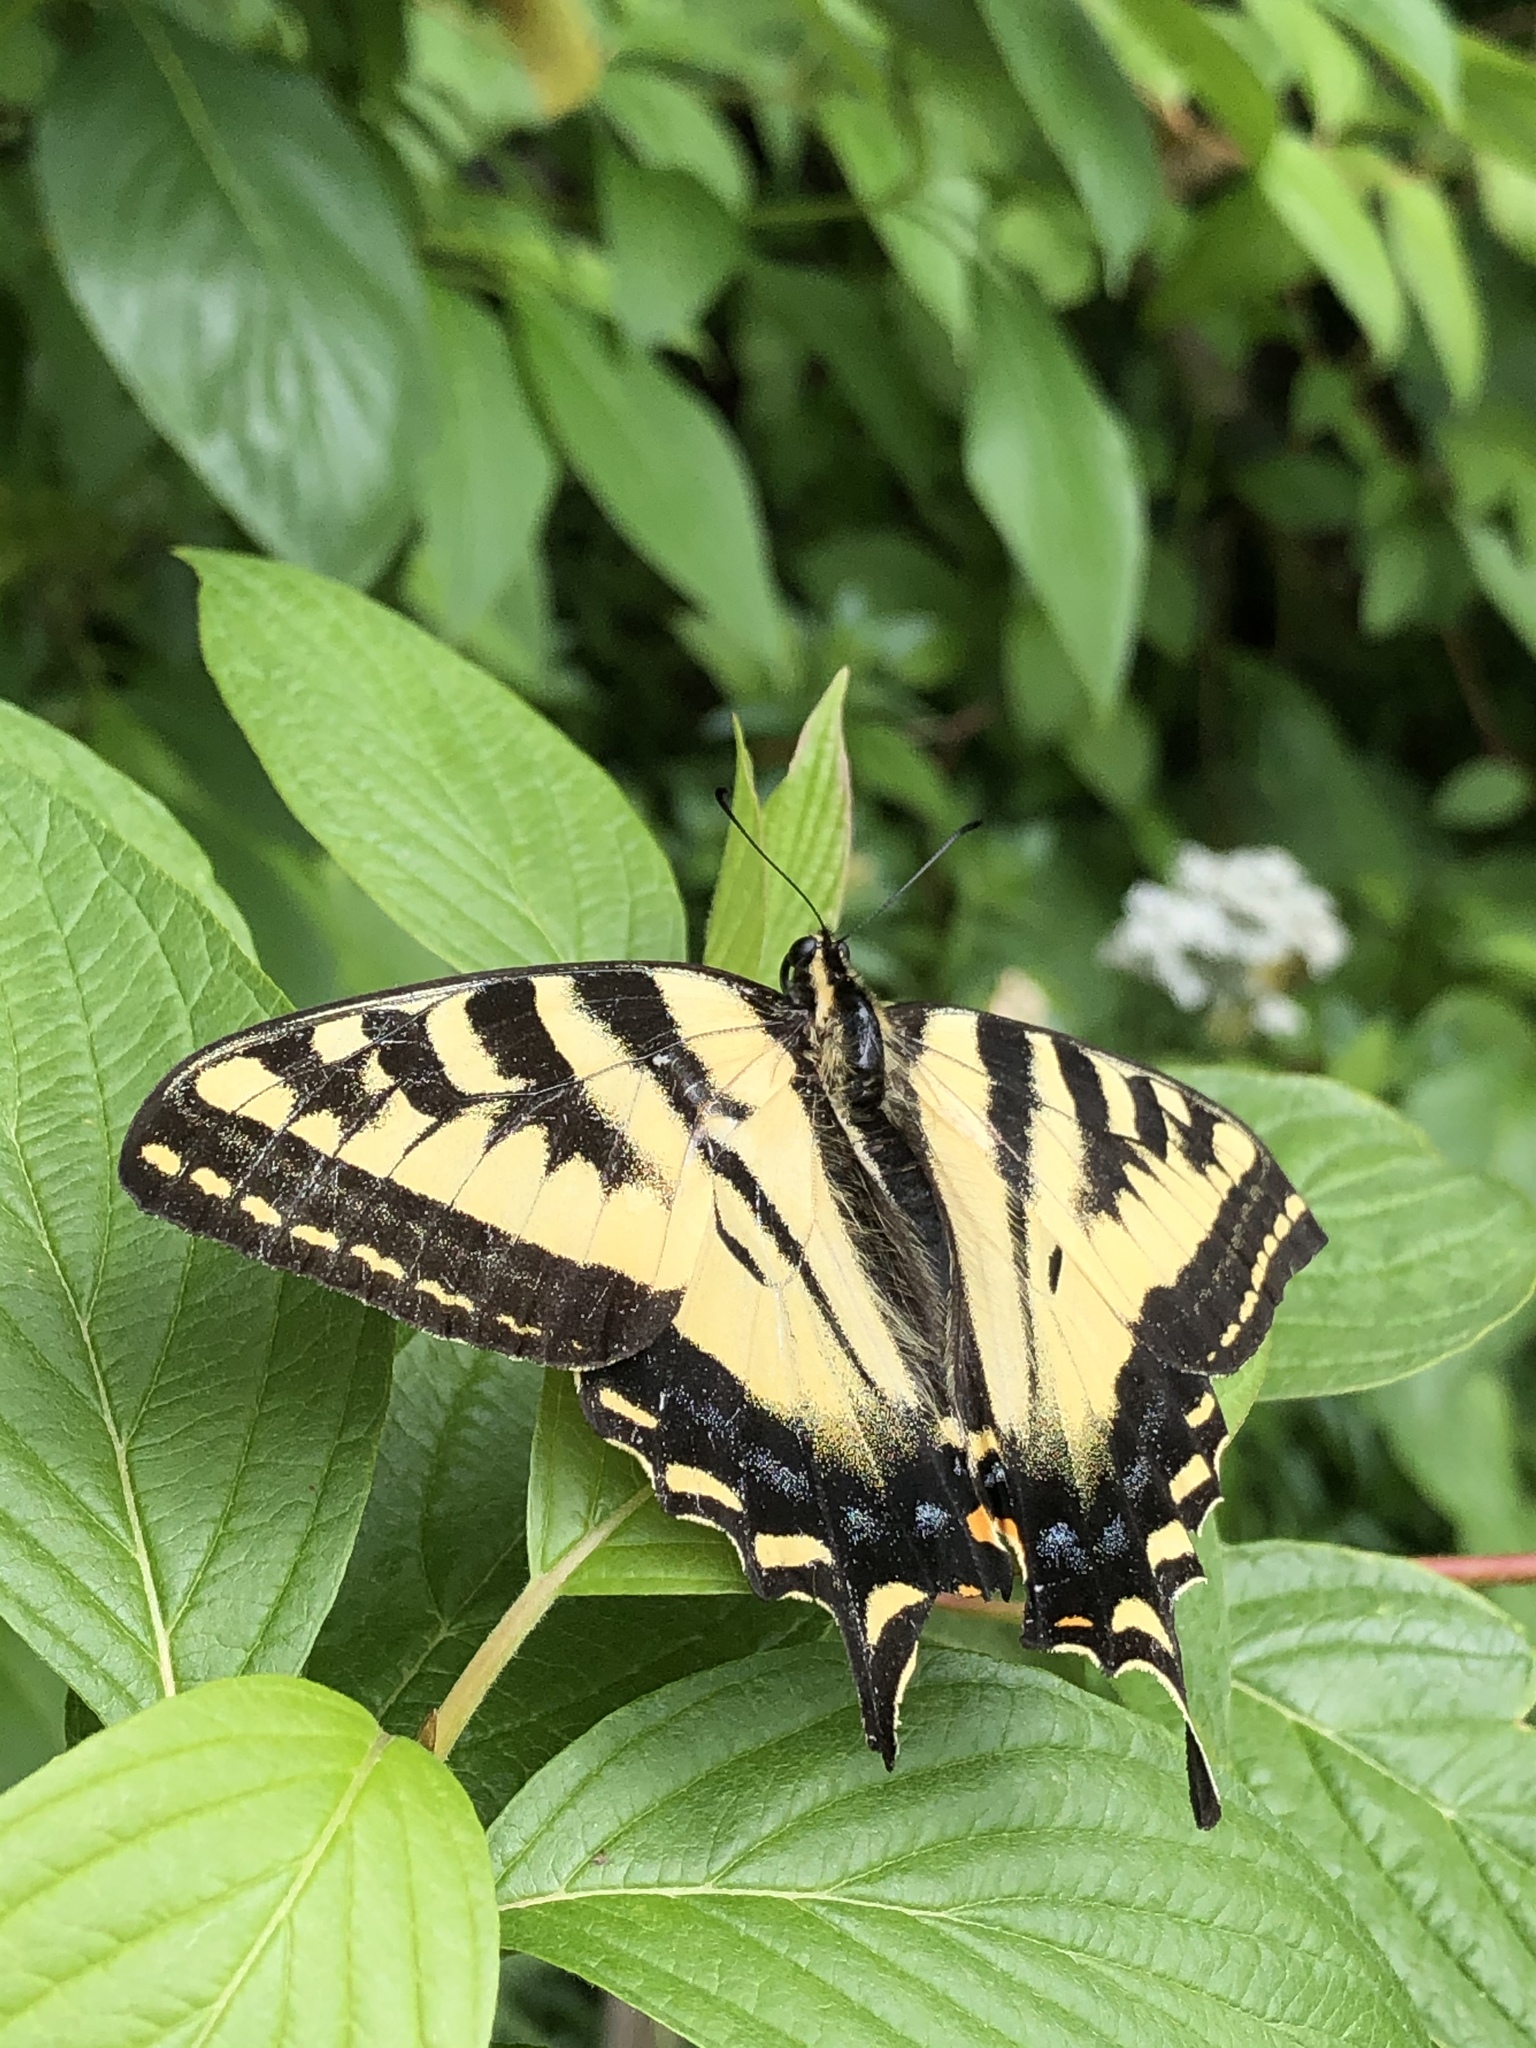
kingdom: Animalia
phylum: Arthropoda
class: Insecta
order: Lepidoptera
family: Papilionidae
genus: Papilio
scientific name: Papilio rutulus
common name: Western tiger swallowtail
